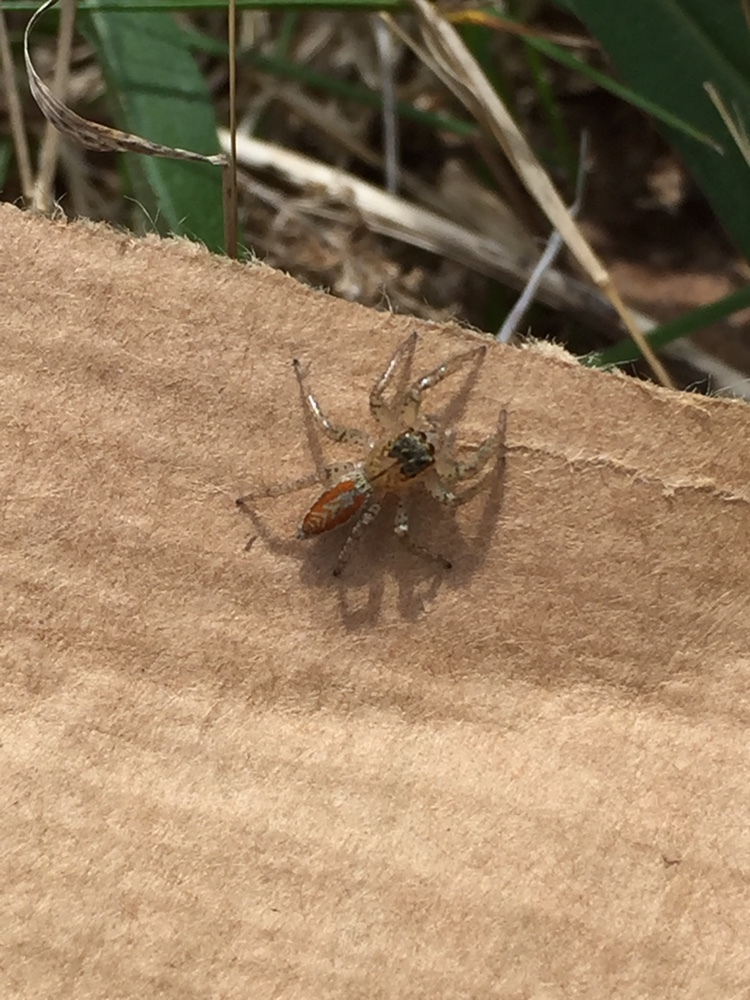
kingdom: Animalia
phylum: Arthropoda
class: Arachnida
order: Araneae
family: Salticidae
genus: Maevia
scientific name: Maevia inclemens
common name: Dimorphic jumper
